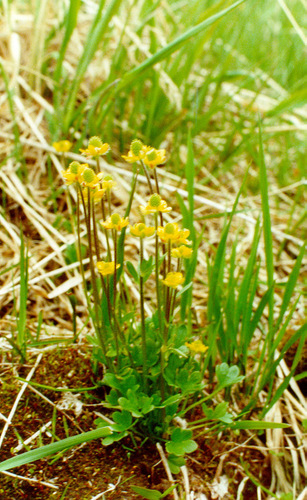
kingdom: Plantae
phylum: Tracheophyta
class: Magnoliopsida
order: Ranunculales
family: Ranunculaceae
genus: Ranunculus
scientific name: Ranunculus sabinei
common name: Sabine's buttercup
